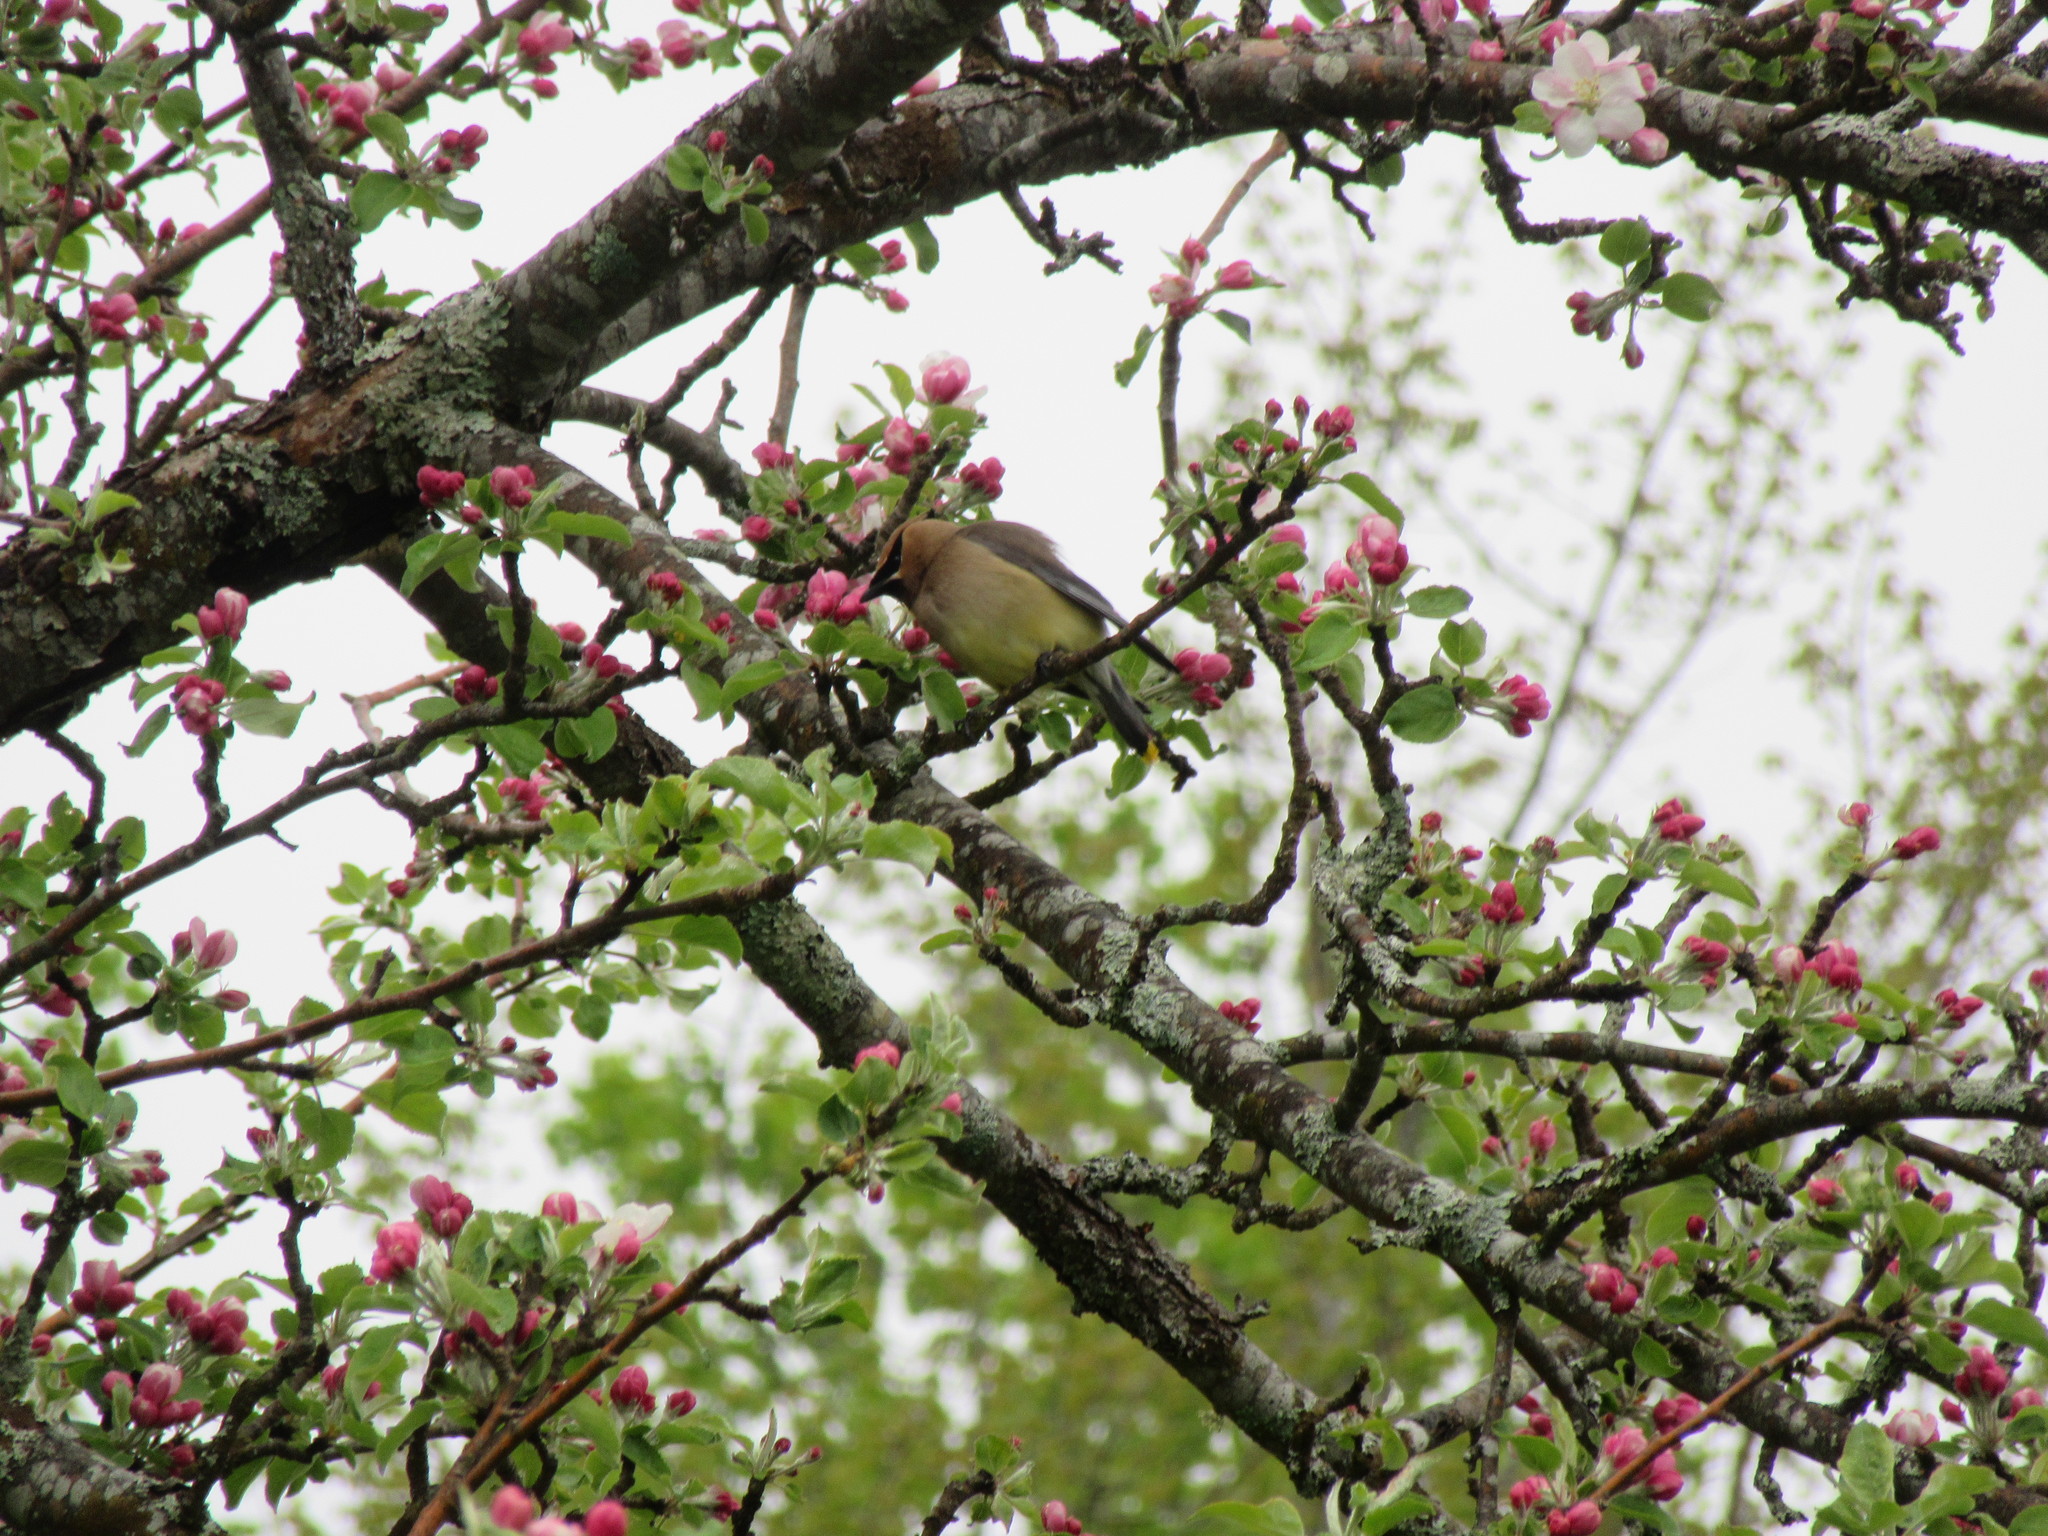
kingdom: Animalia
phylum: Chordata
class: Aves
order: Passeriformes
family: Bombycillidae
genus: Bombycilla
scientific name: Bombycilla cedrorum
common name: Cedar waxwing
